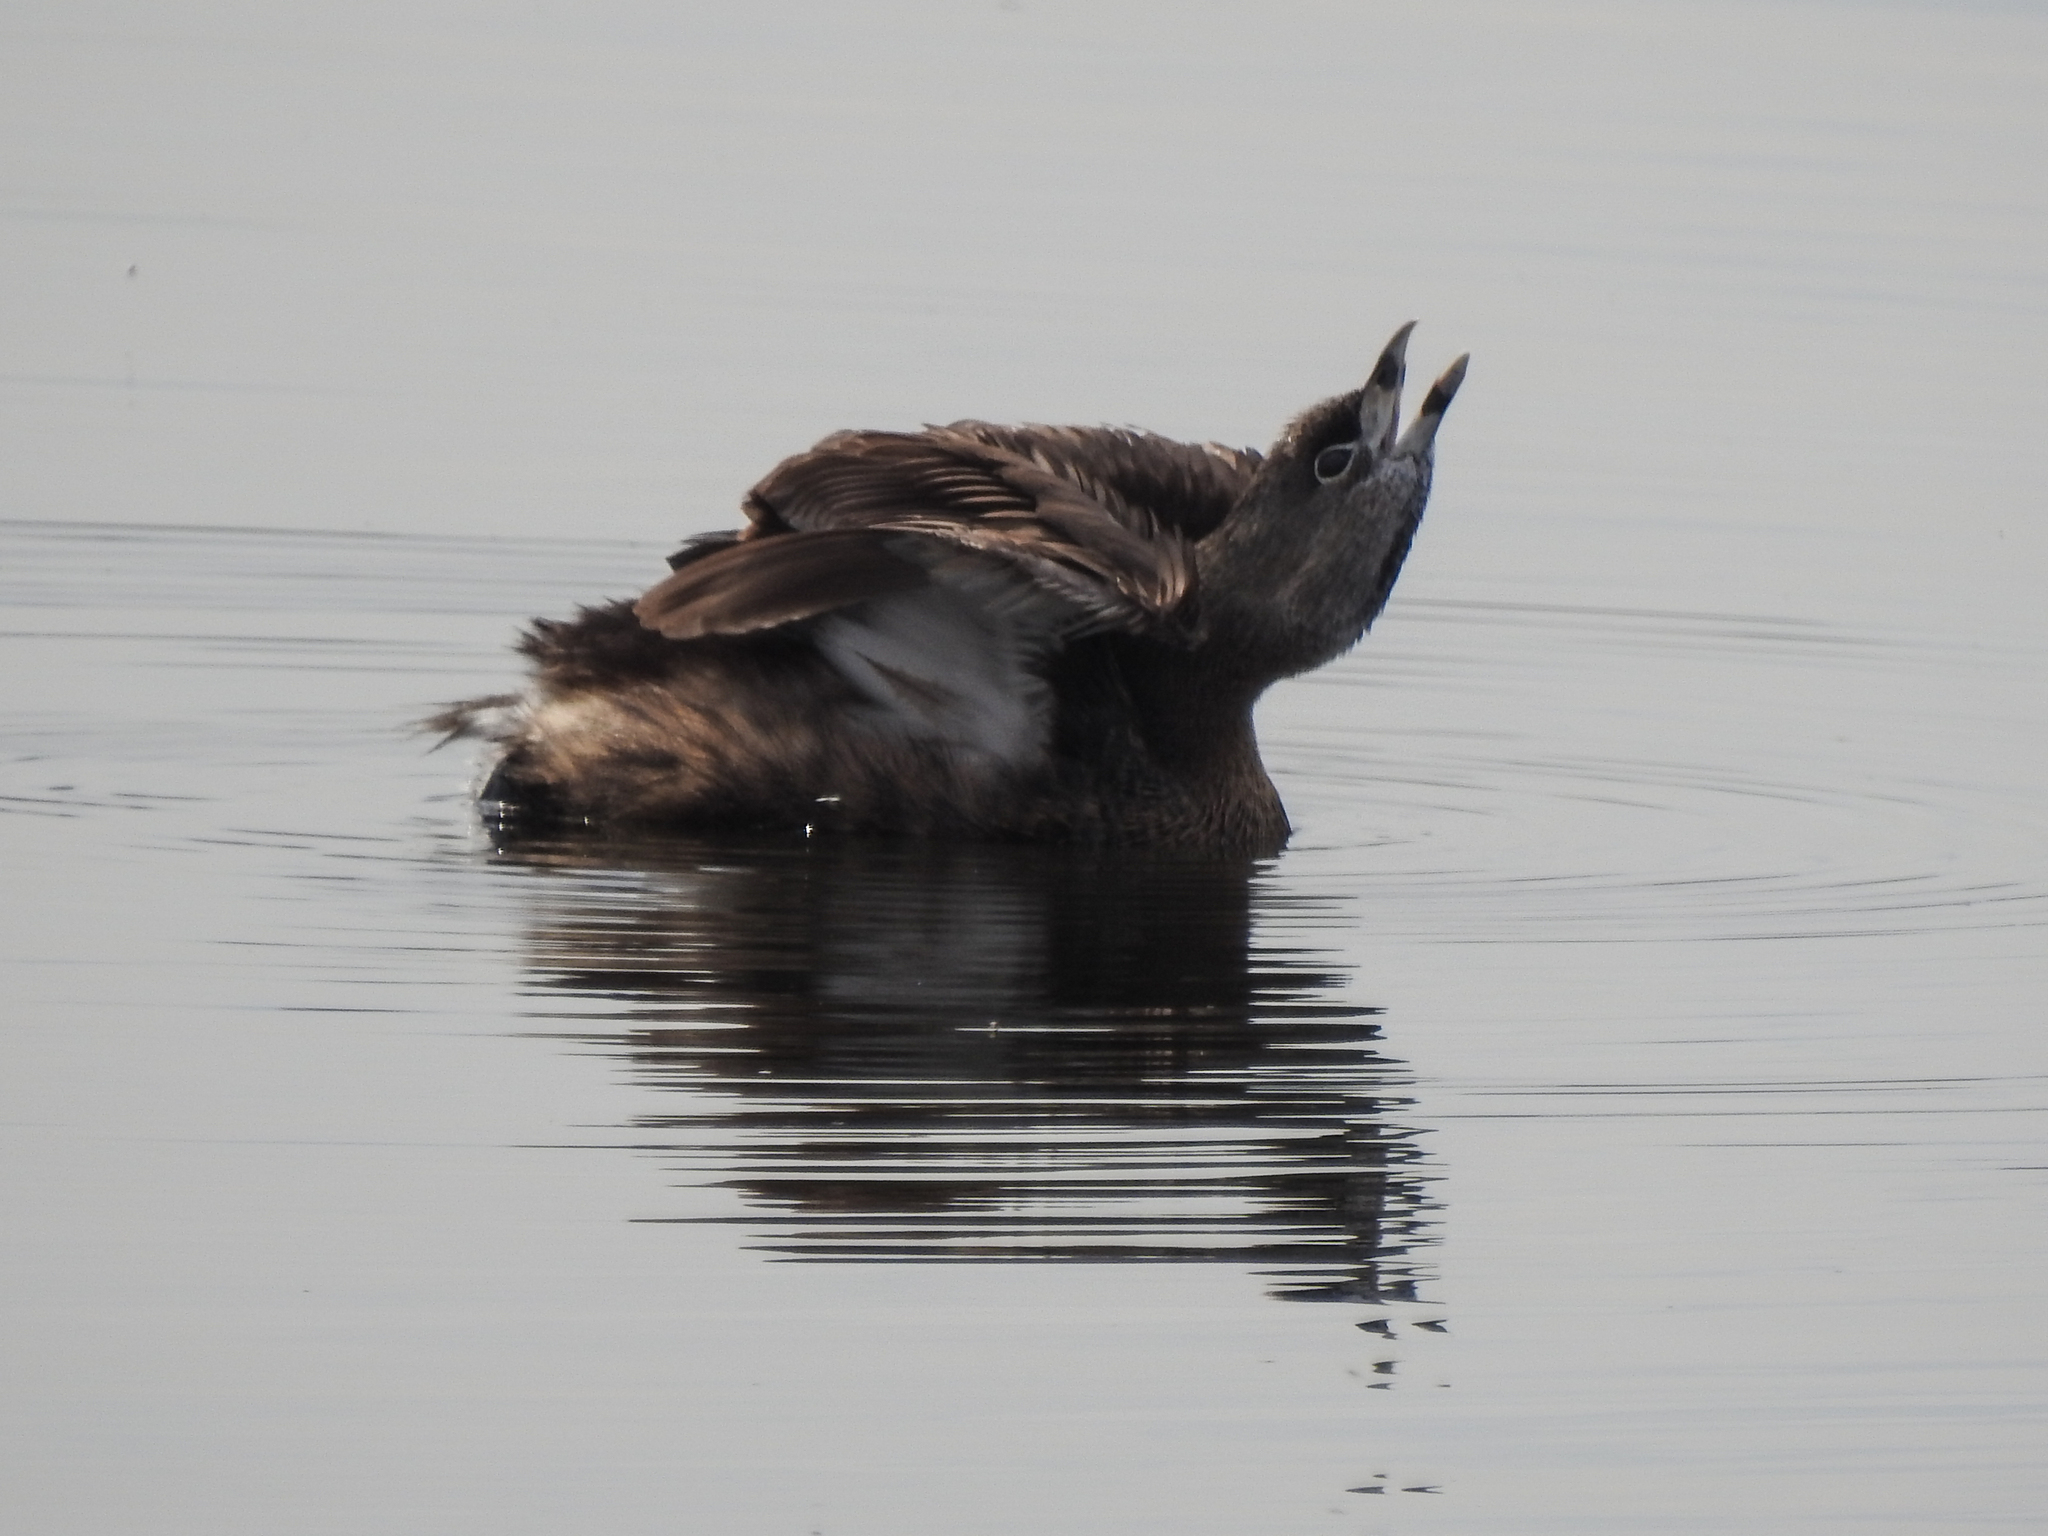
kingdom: Animalia
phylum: Chordata
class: Aves
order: Podicipediformes
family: Podicipedidae
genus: Podilymbus
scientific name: Podilymbus podiceps
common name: Pied-billed grebe
